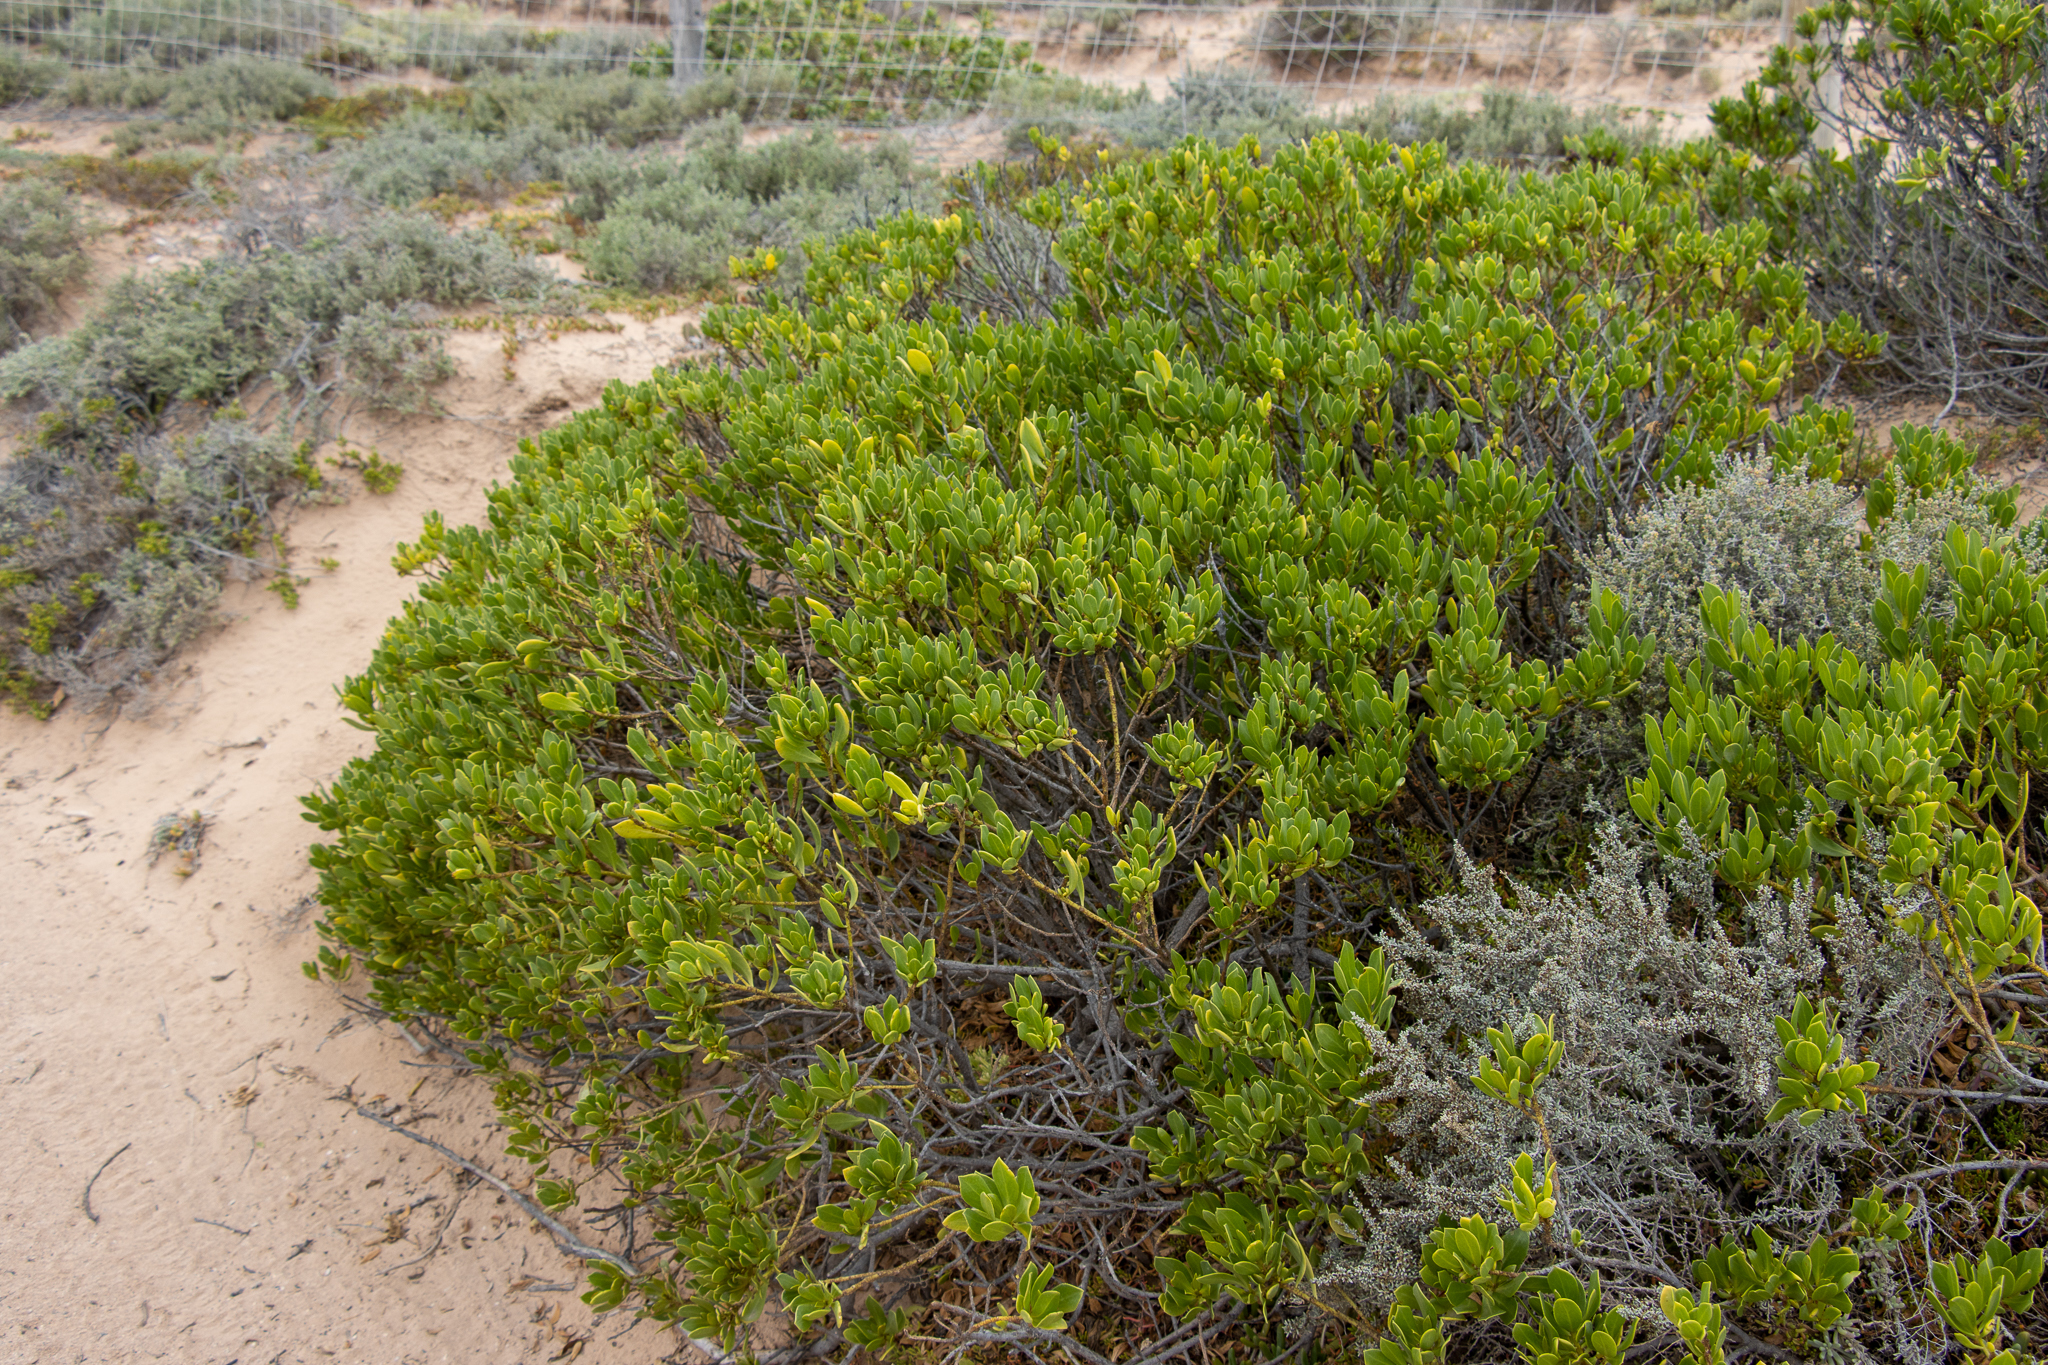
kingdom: Plantae
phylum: Tracheophyta
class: Magnoliopsida
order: Lamiales
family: Scrophulariaceae
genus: Myoporum
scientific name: Myoporum insulare
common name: Common boobialla
